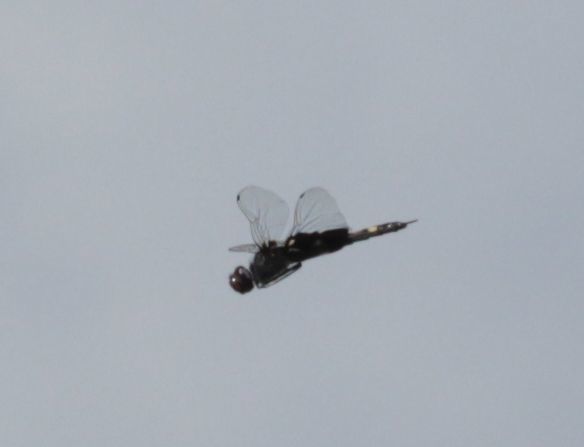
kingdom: Animalia
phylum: Arthropoda
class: Insecta
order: Odonata
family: Libellulidae
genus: Tramea
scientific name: Tramea lacerata
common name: Black saddlebags
